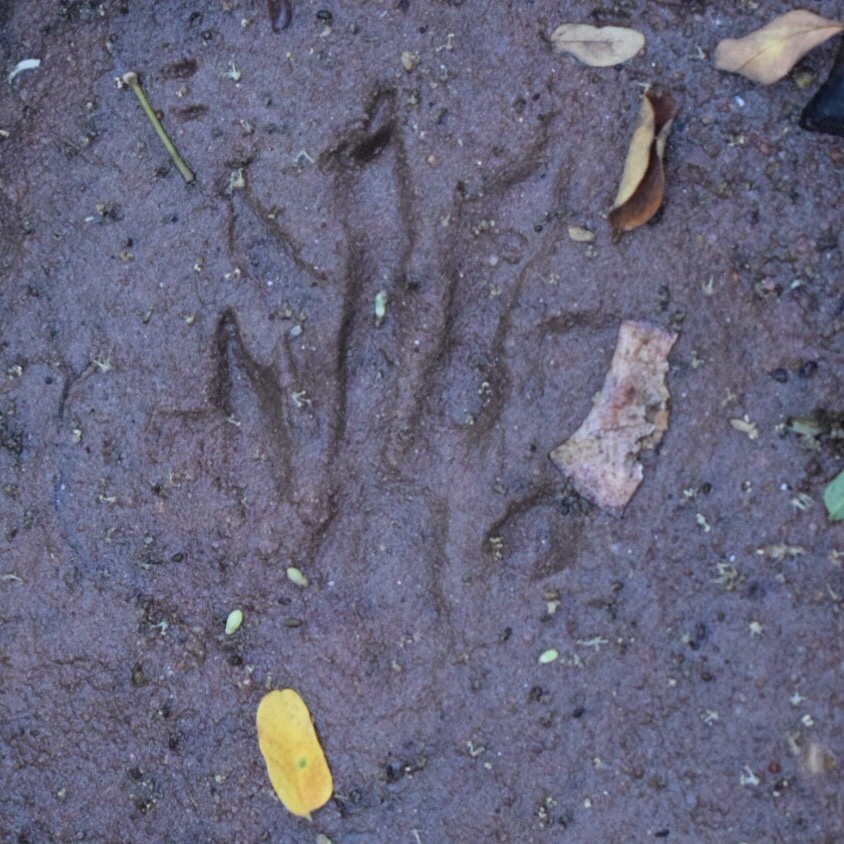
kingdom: Animalia
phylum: Chordata
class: Mammalia
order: Carnivora
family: Herpestidae
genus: Atilax
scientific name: Atilax paludinosus
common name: Marsh mongoose
